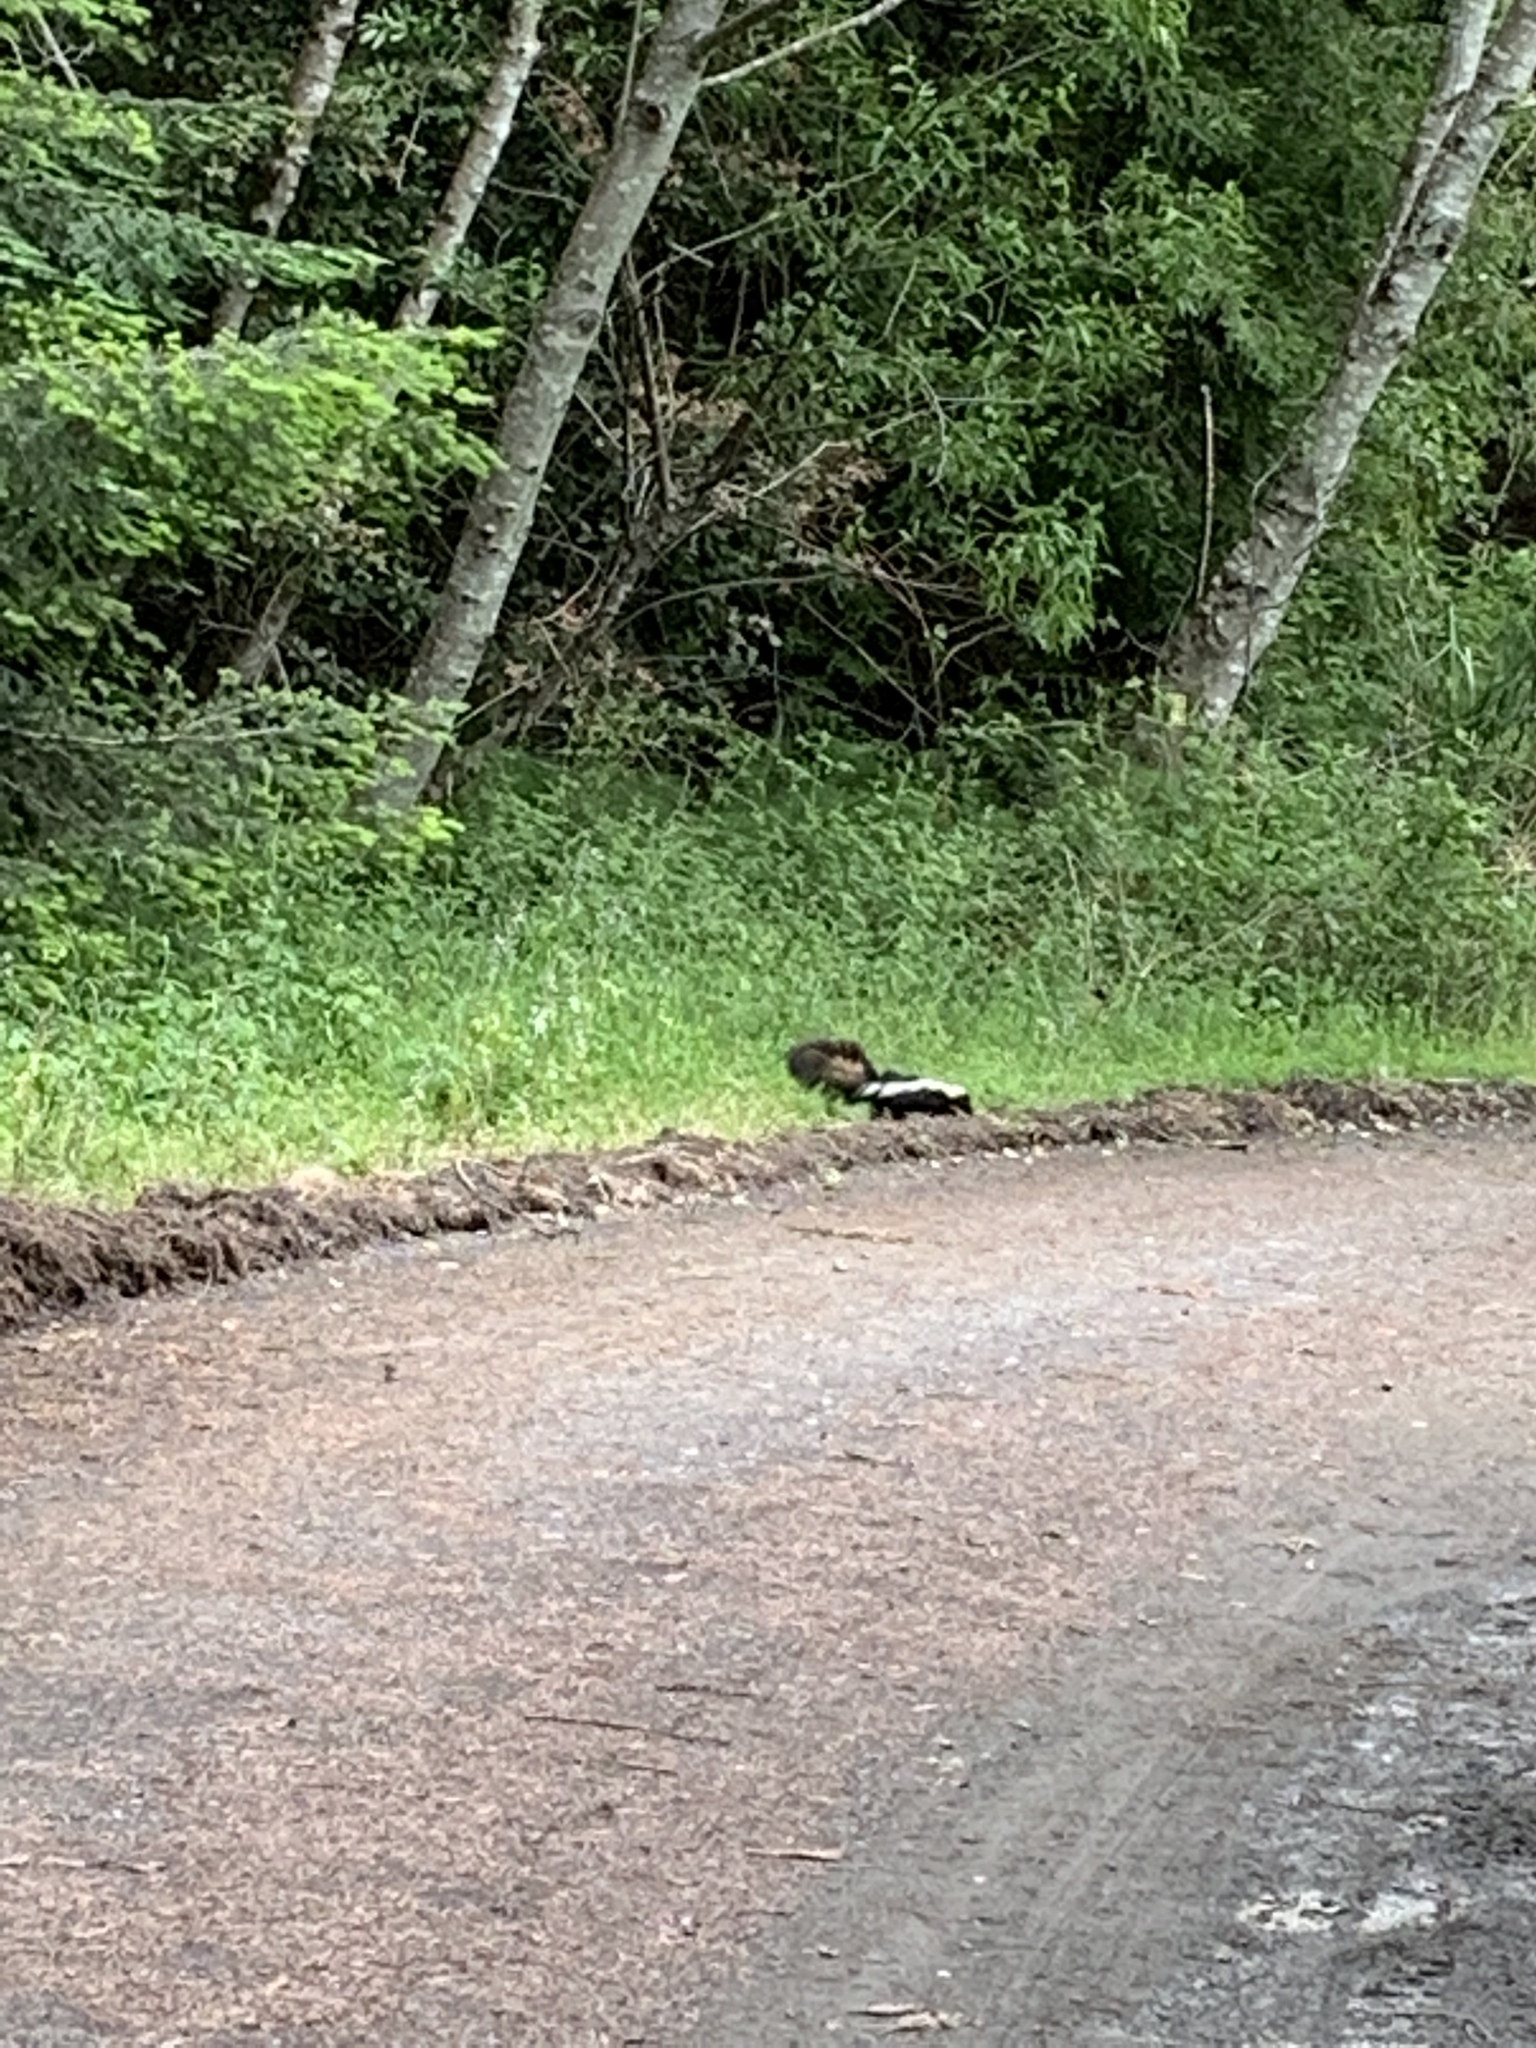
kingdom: Animalia
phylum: Chordata
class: Mammalia
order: Carnivora
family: Mephitidae
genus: Mephitis
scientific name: Mephitis mephitis
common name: Striped skunk
